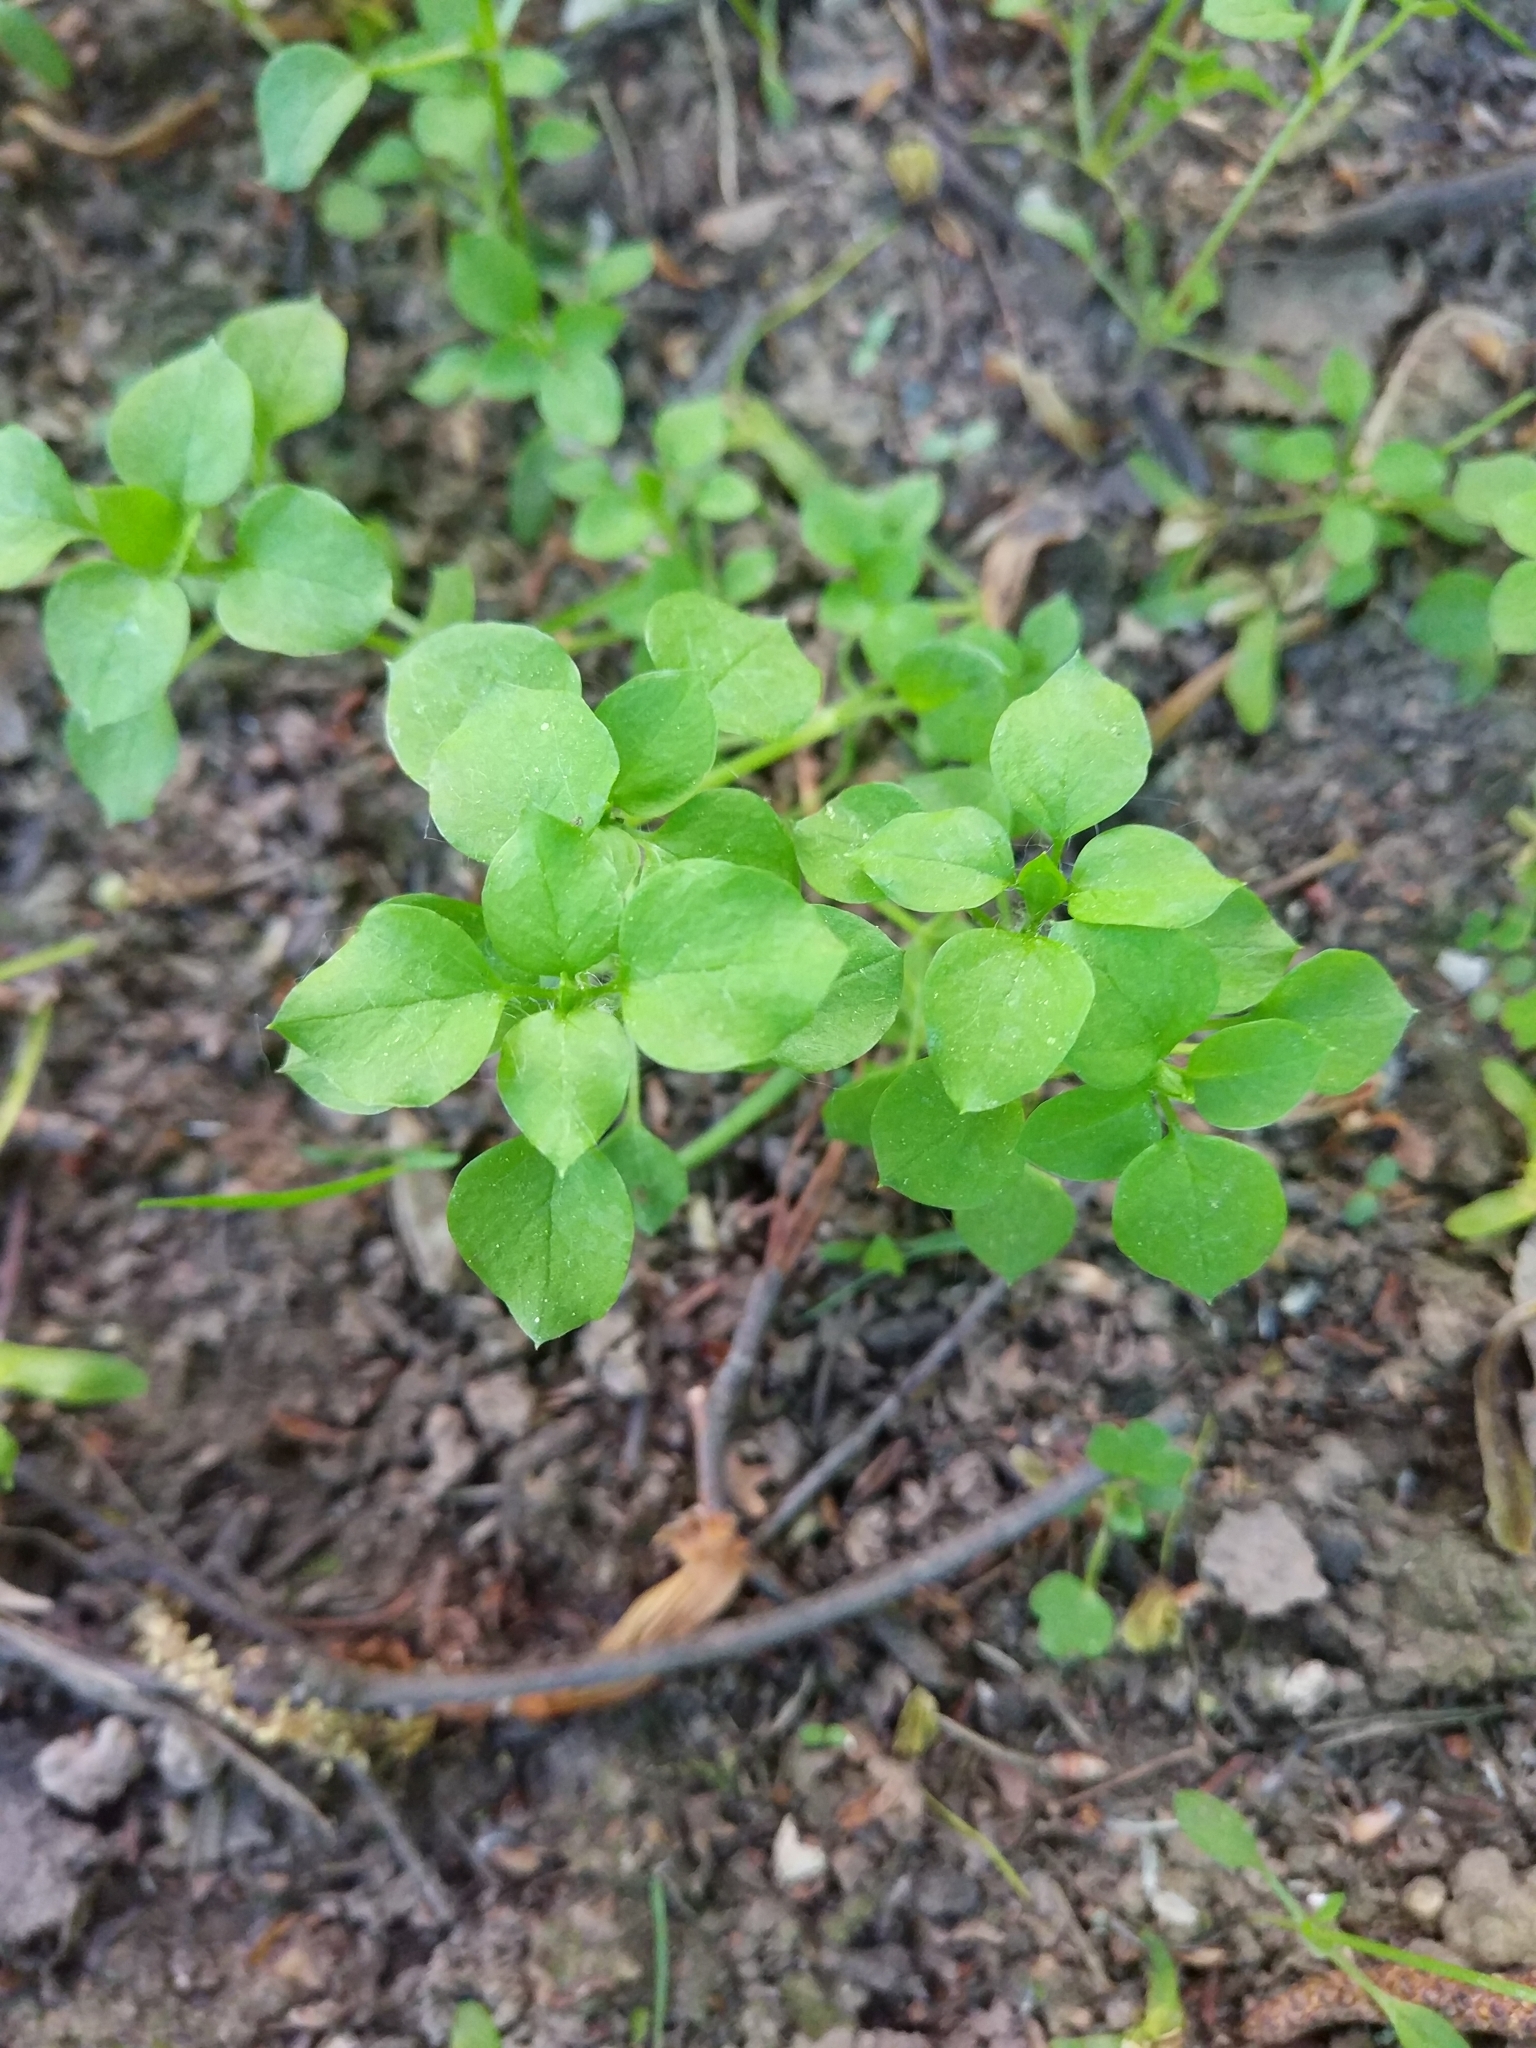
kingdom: Plantae
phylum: Tracheophyta
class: Magnoliopsida
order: Caryophyllales
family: Caryophyllaceae
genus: Stellaria
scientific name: Stellaria media
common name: Common chickweed
